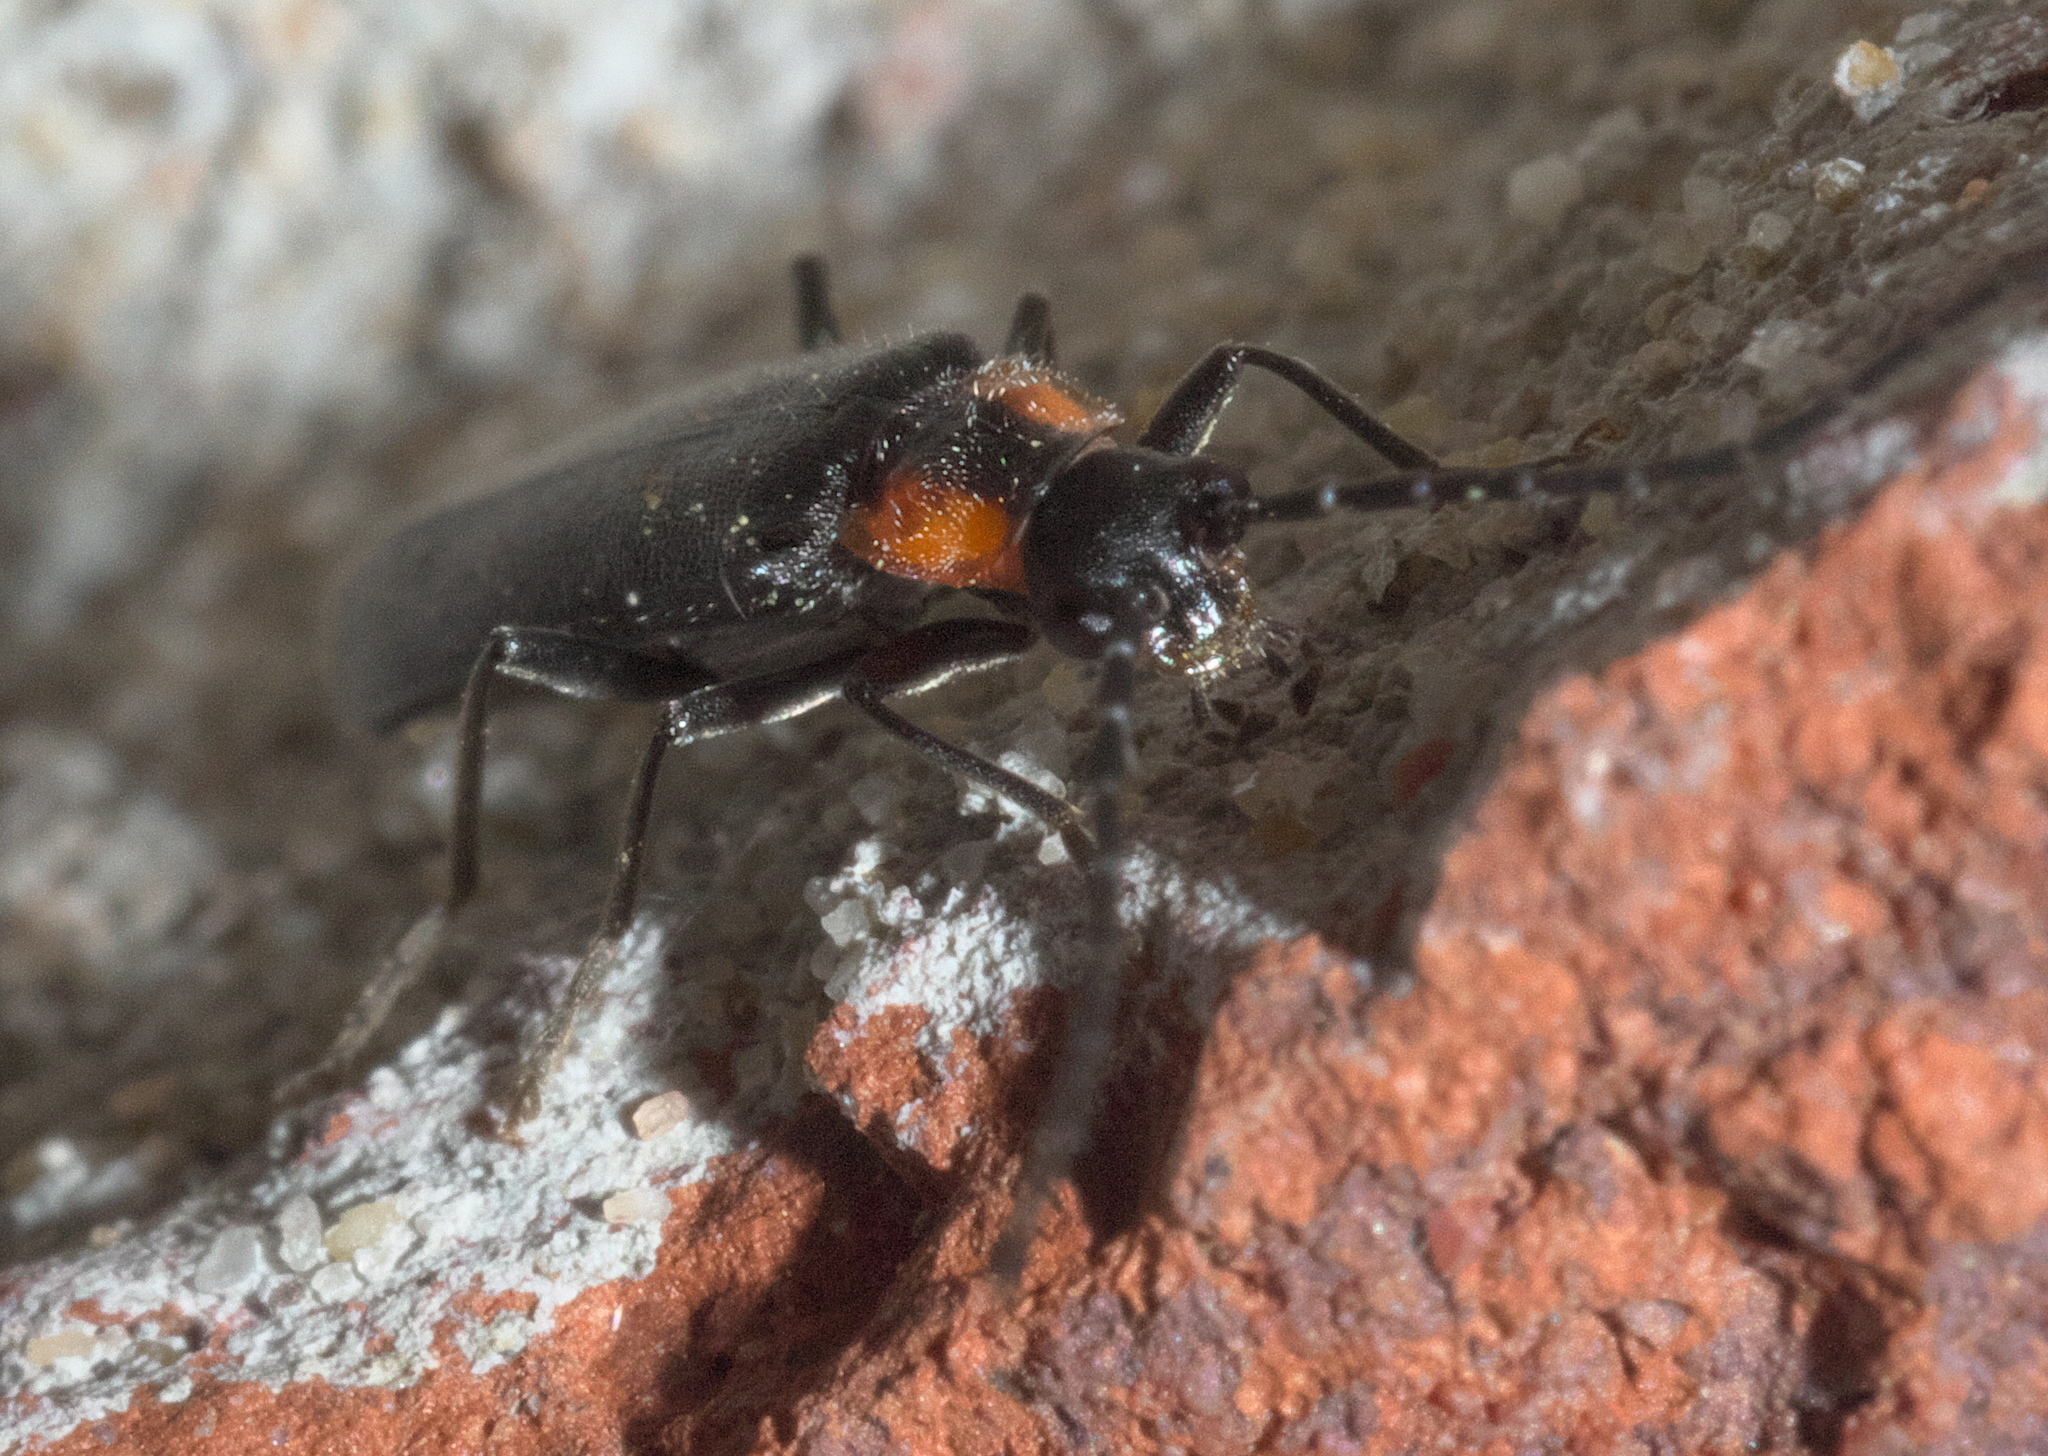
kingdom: Animalia
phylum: Arthropoda
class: Insecta
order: Coleoptera
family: Cantharidae
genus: Rhagonycha
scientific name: Rhagonycha lineola
